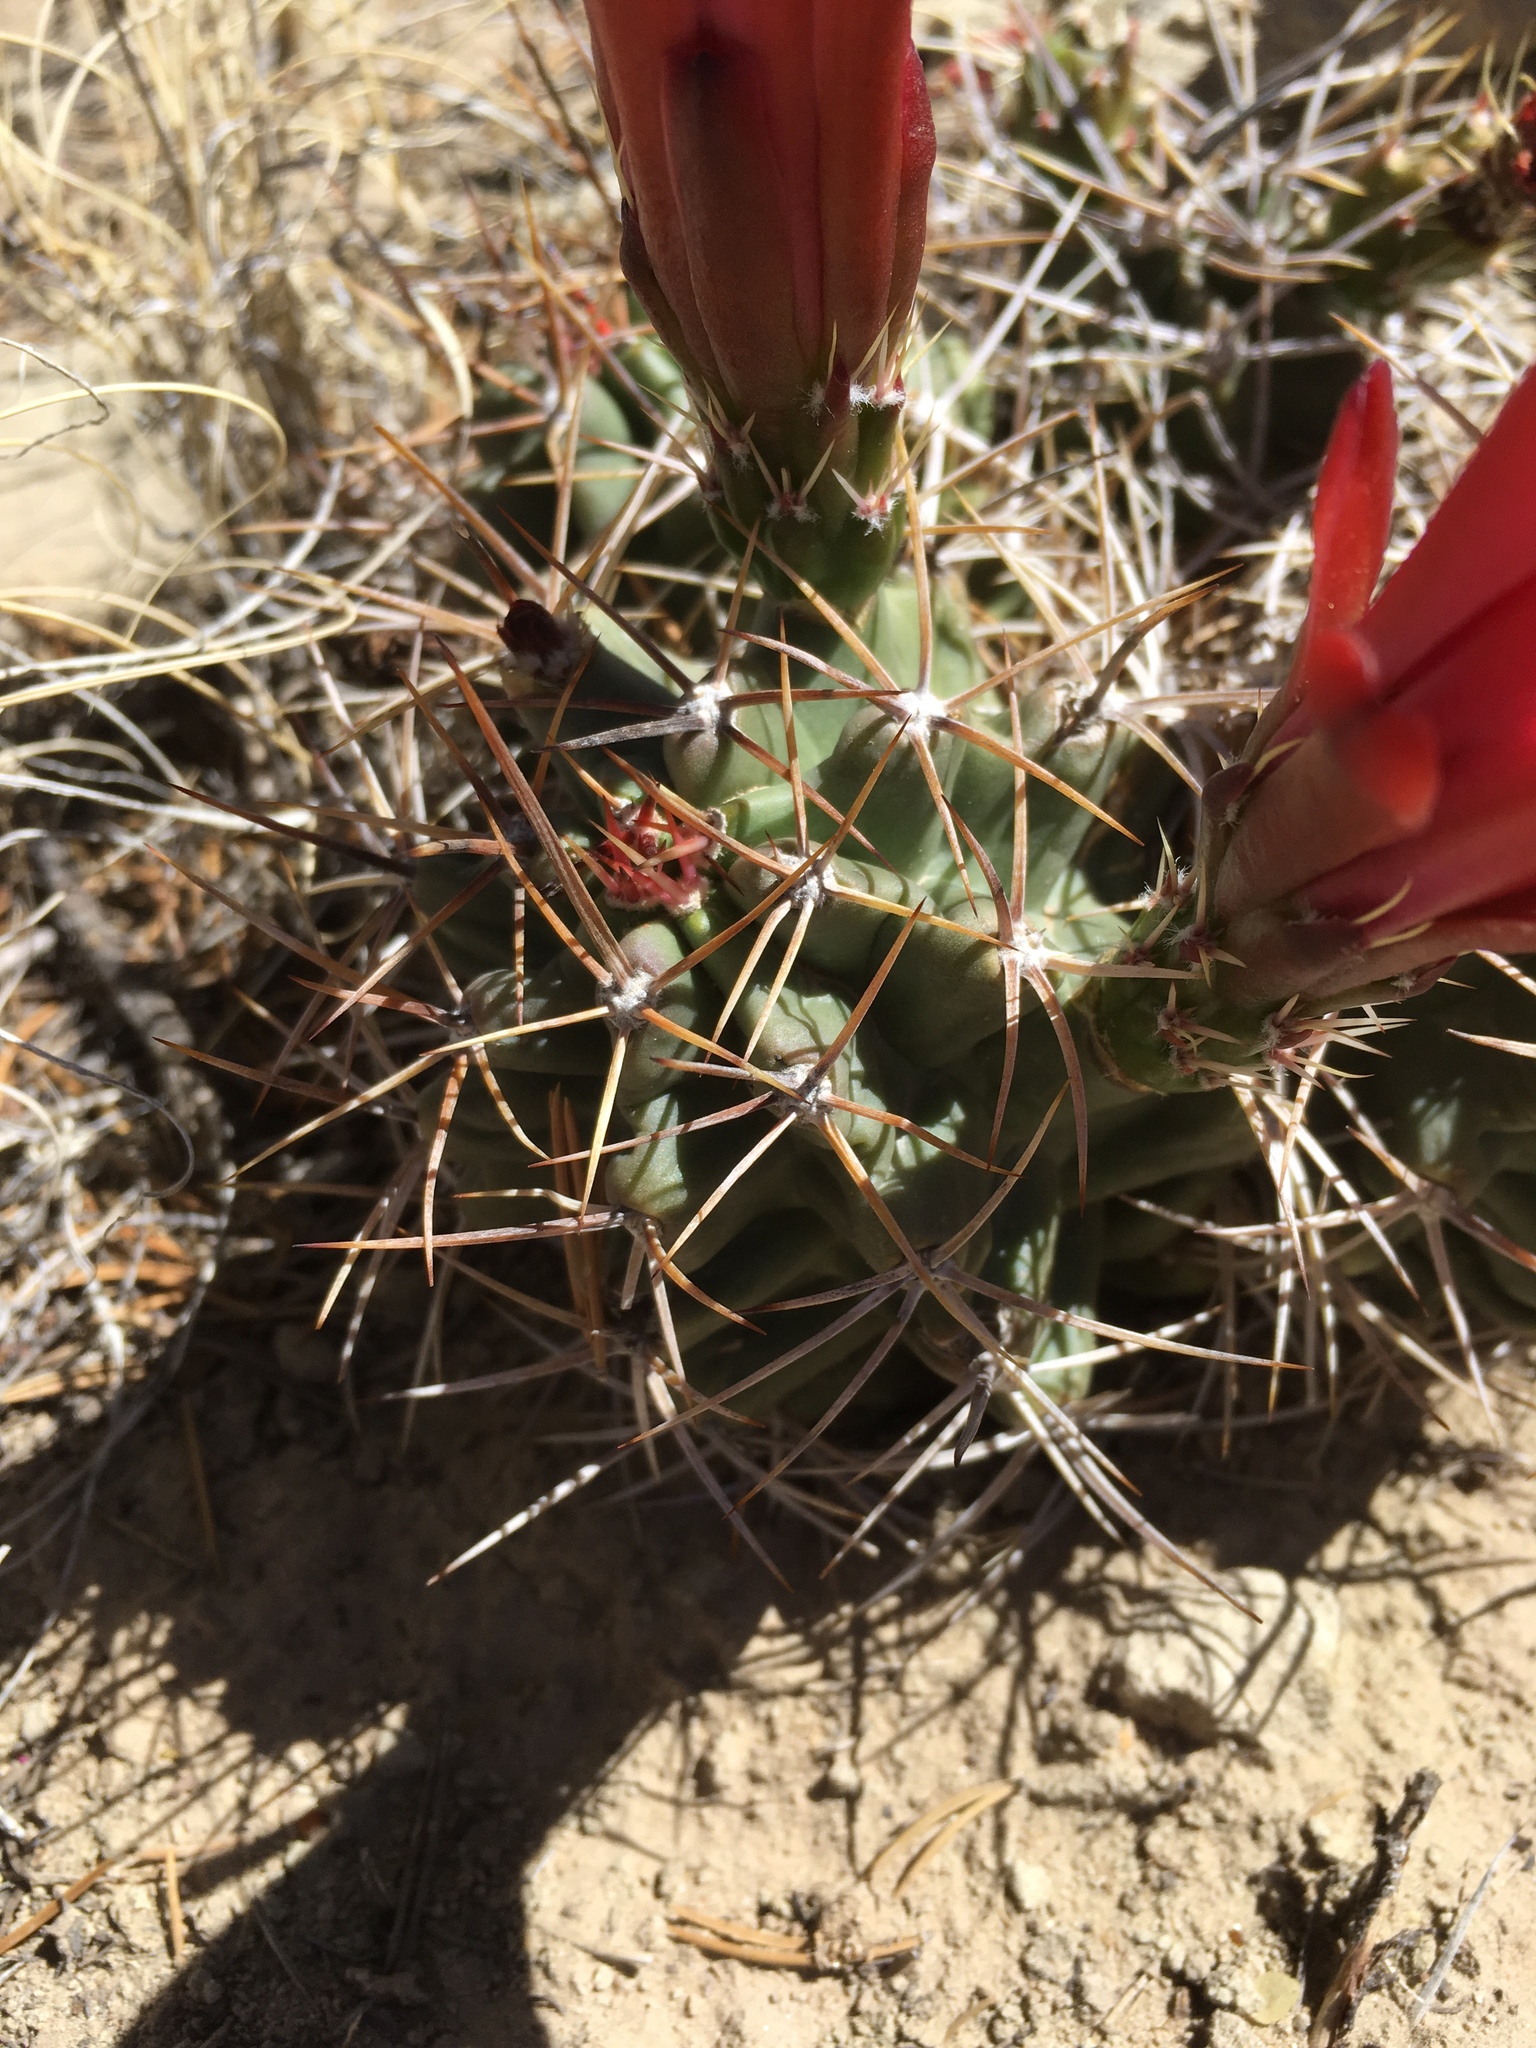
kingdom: Plantae
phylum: Tracheophyta
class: Magnoliopsida
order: Caryophyllales
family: Cactaceae
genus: Echinocereus
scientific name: Echinocereus triglochidiatus
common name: Claretcup hedgehog
